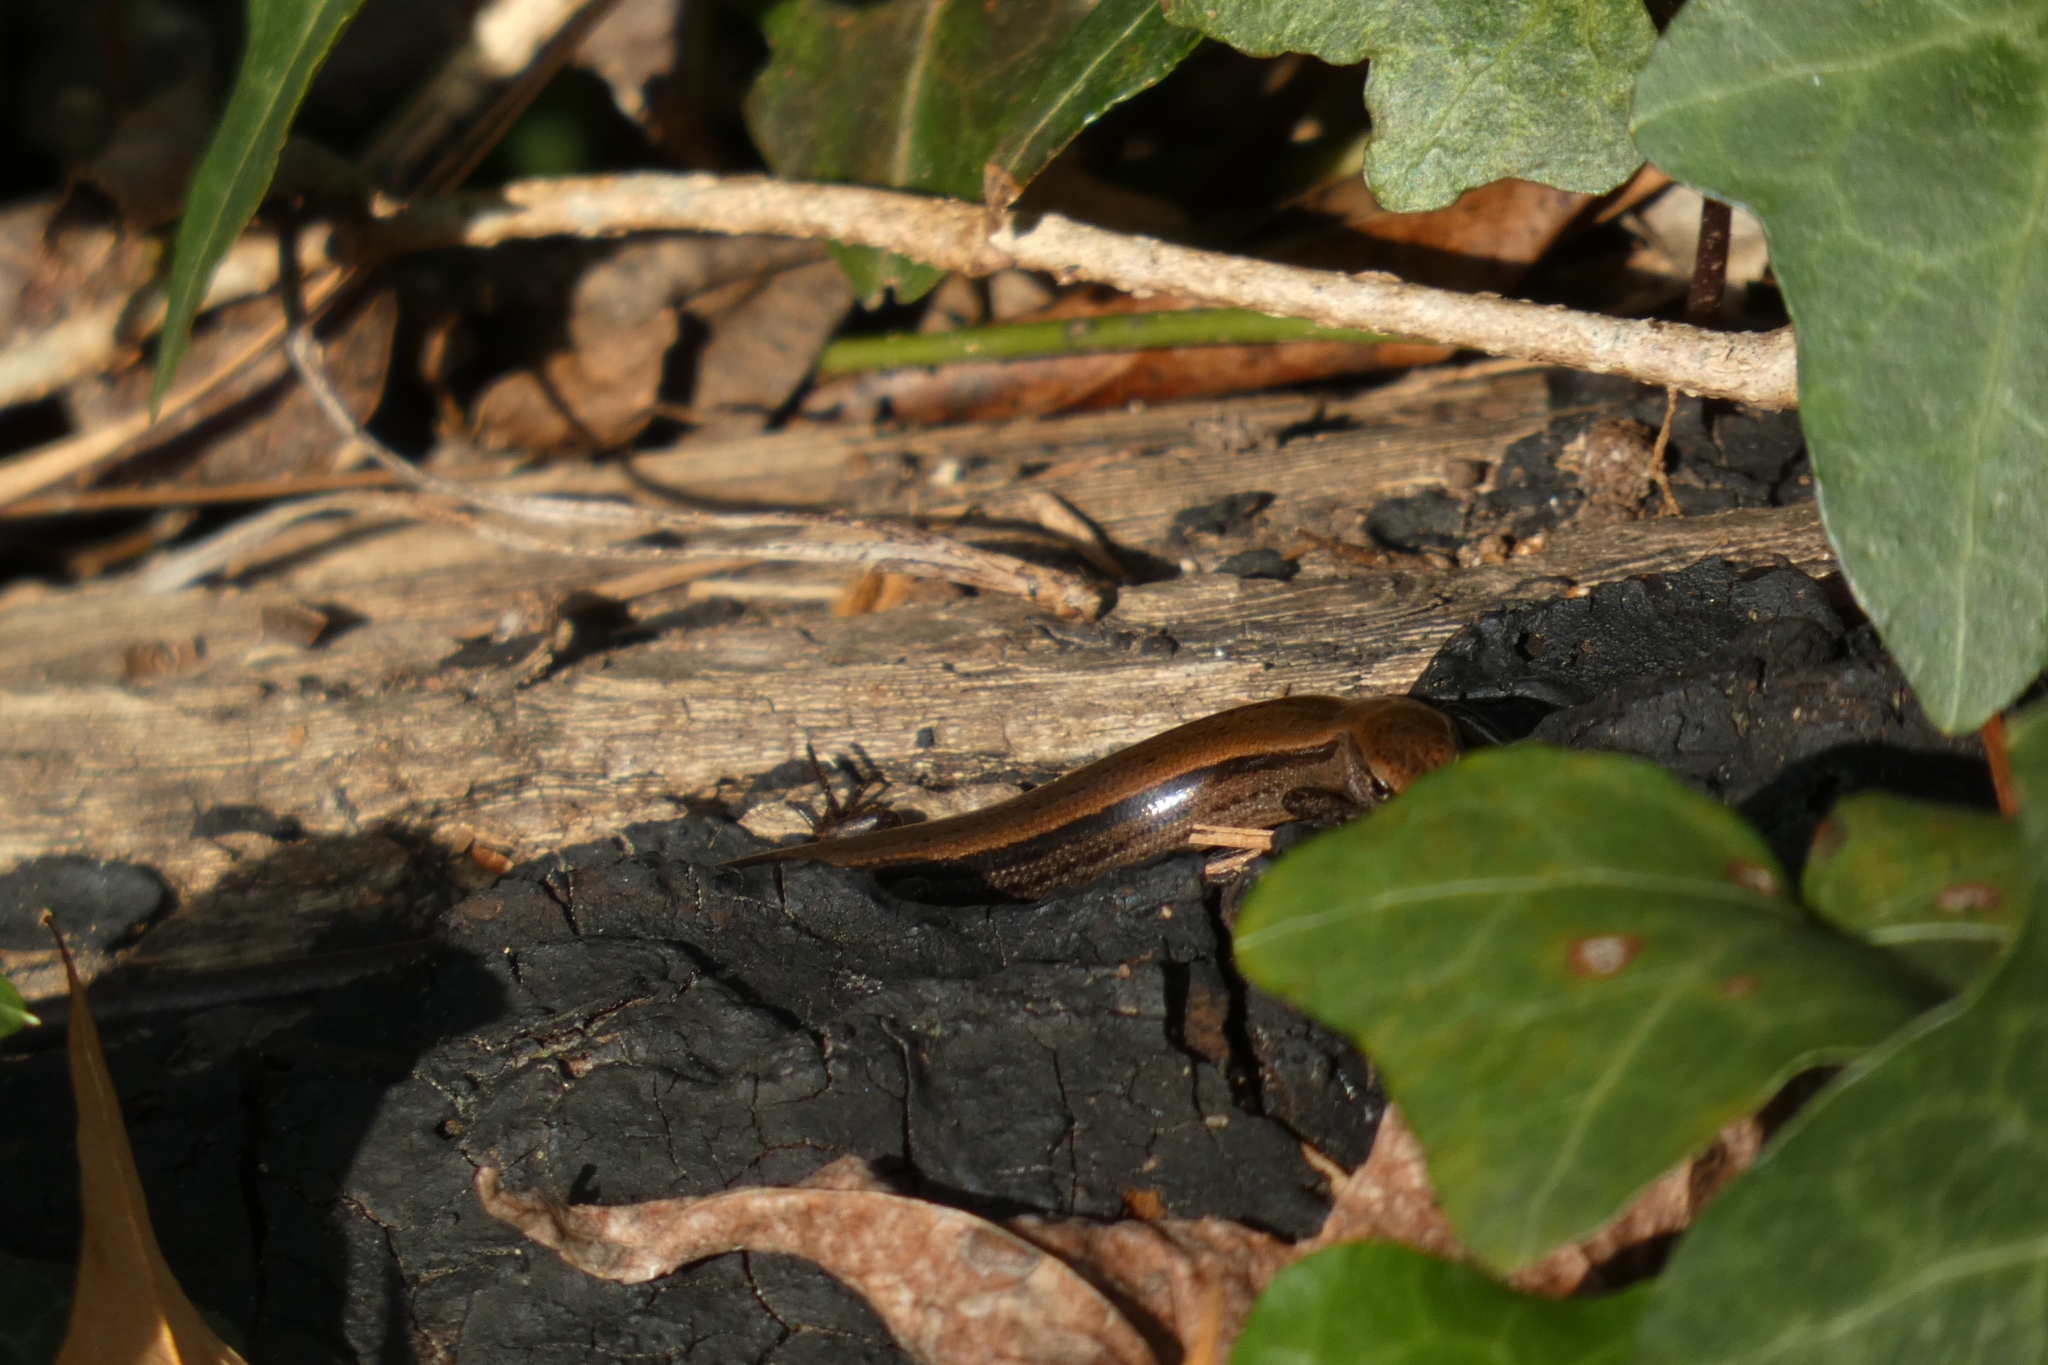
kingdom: Animalia
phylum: Chordata
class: Squamata
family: Scincidae
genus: Scincella
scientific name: Scincella lateralis
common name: Ground skink
